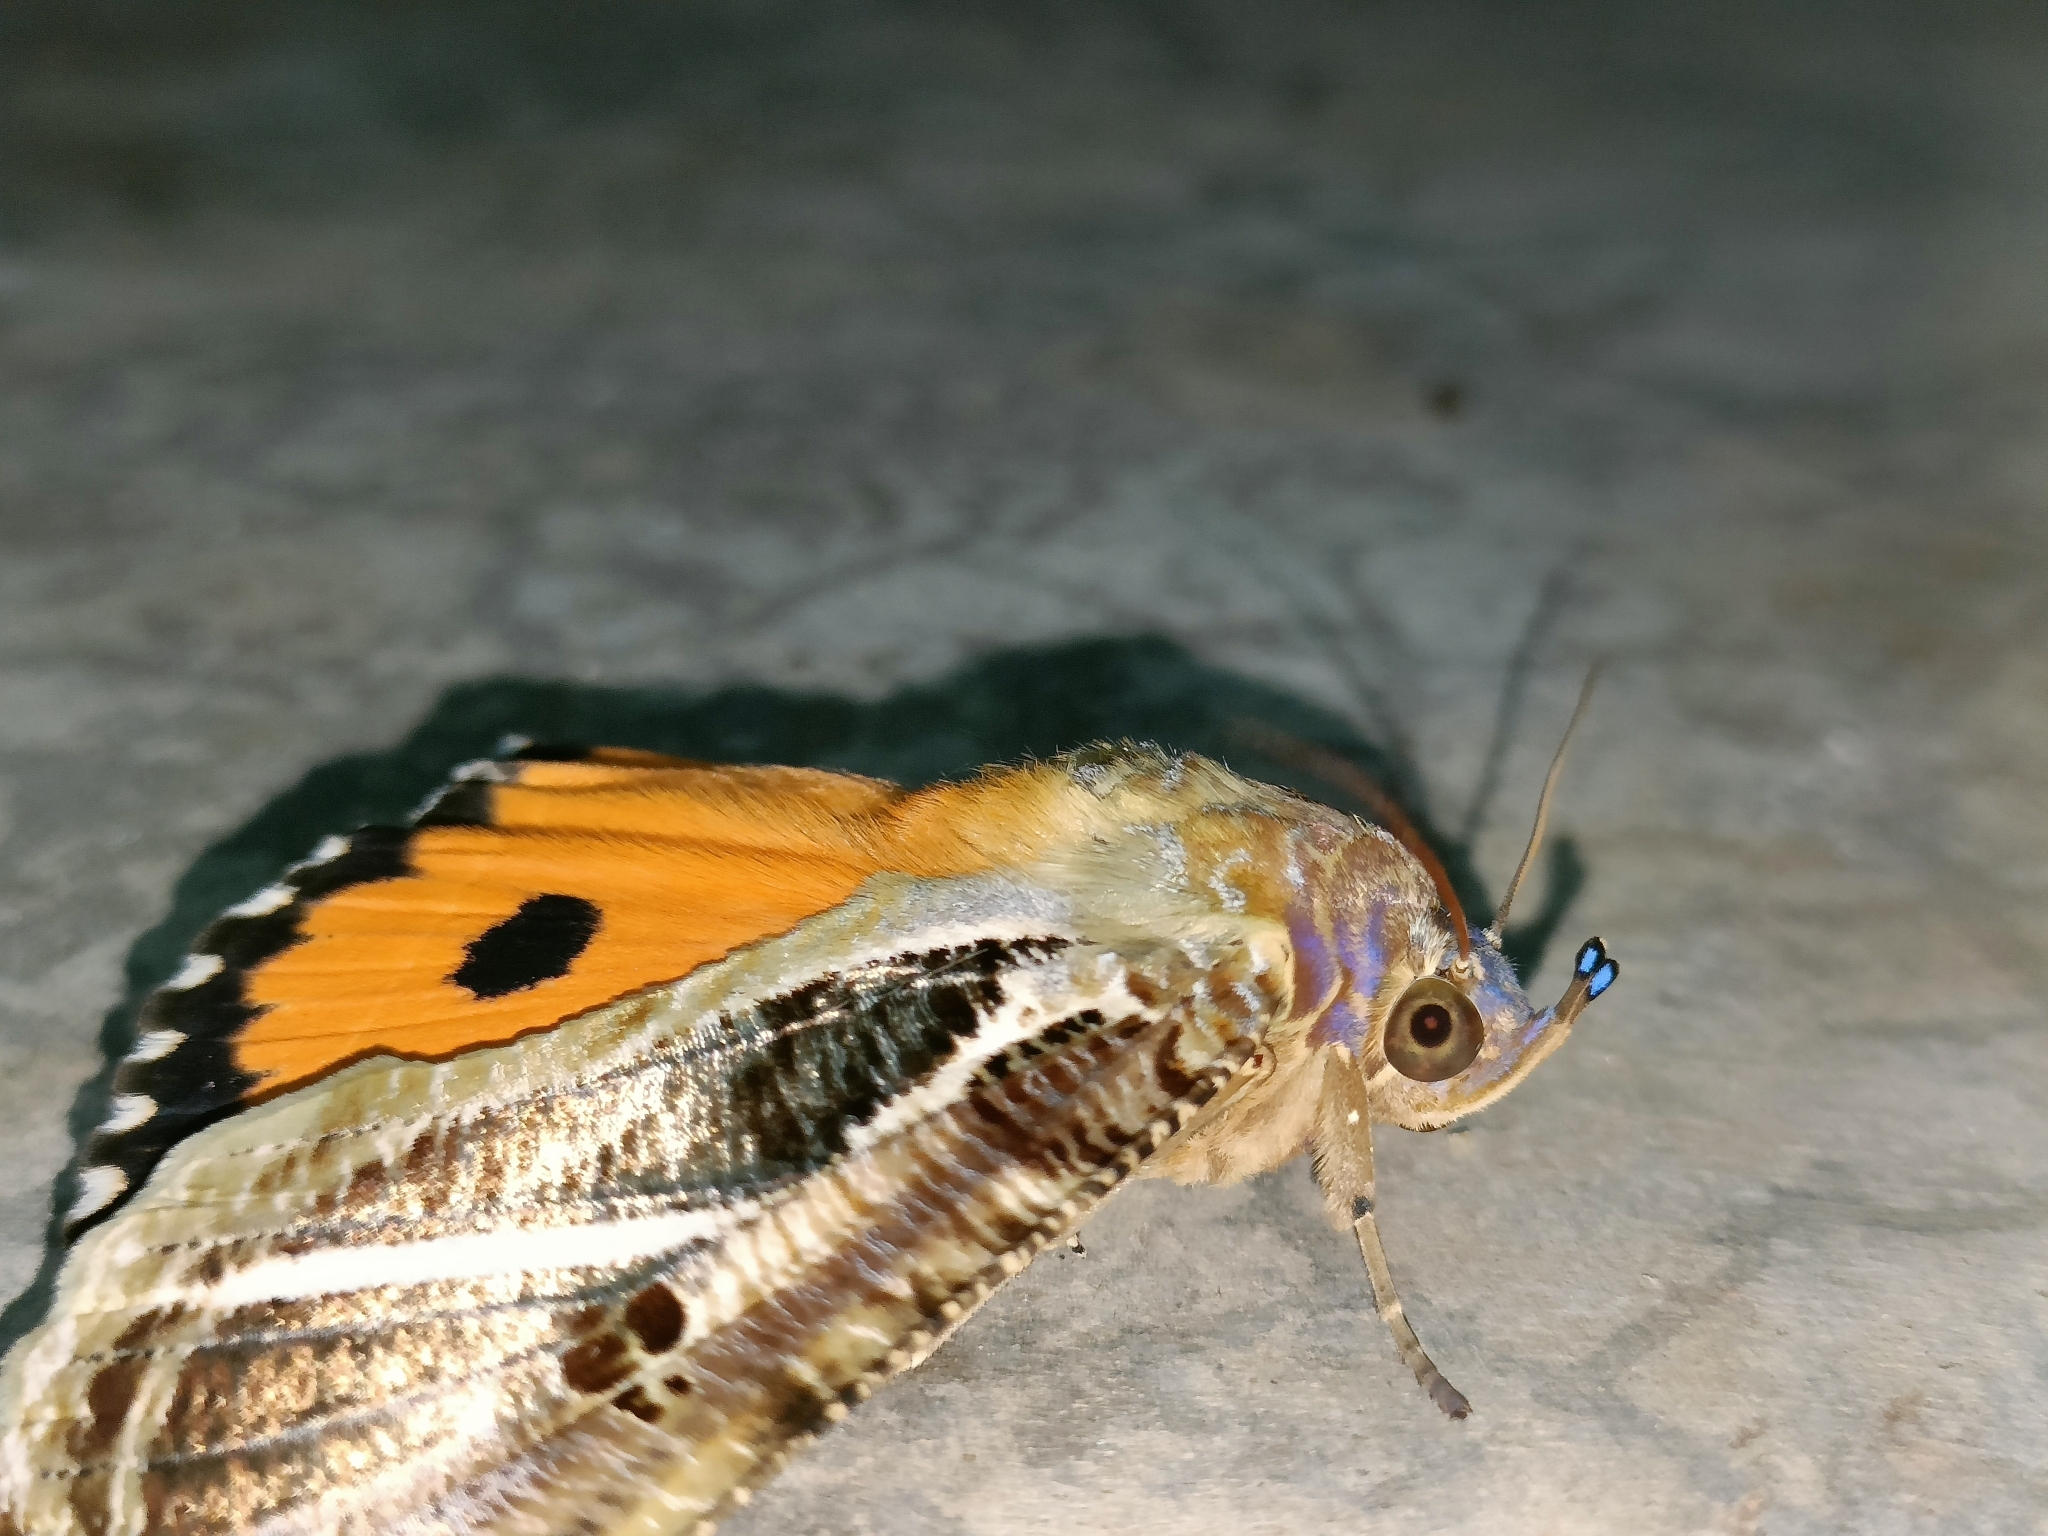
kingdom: Animalia
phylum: Arthropoda
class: Insecta
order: Lepidoptera
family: Erebidae
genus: Eudocima
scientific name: Eudocima materna
